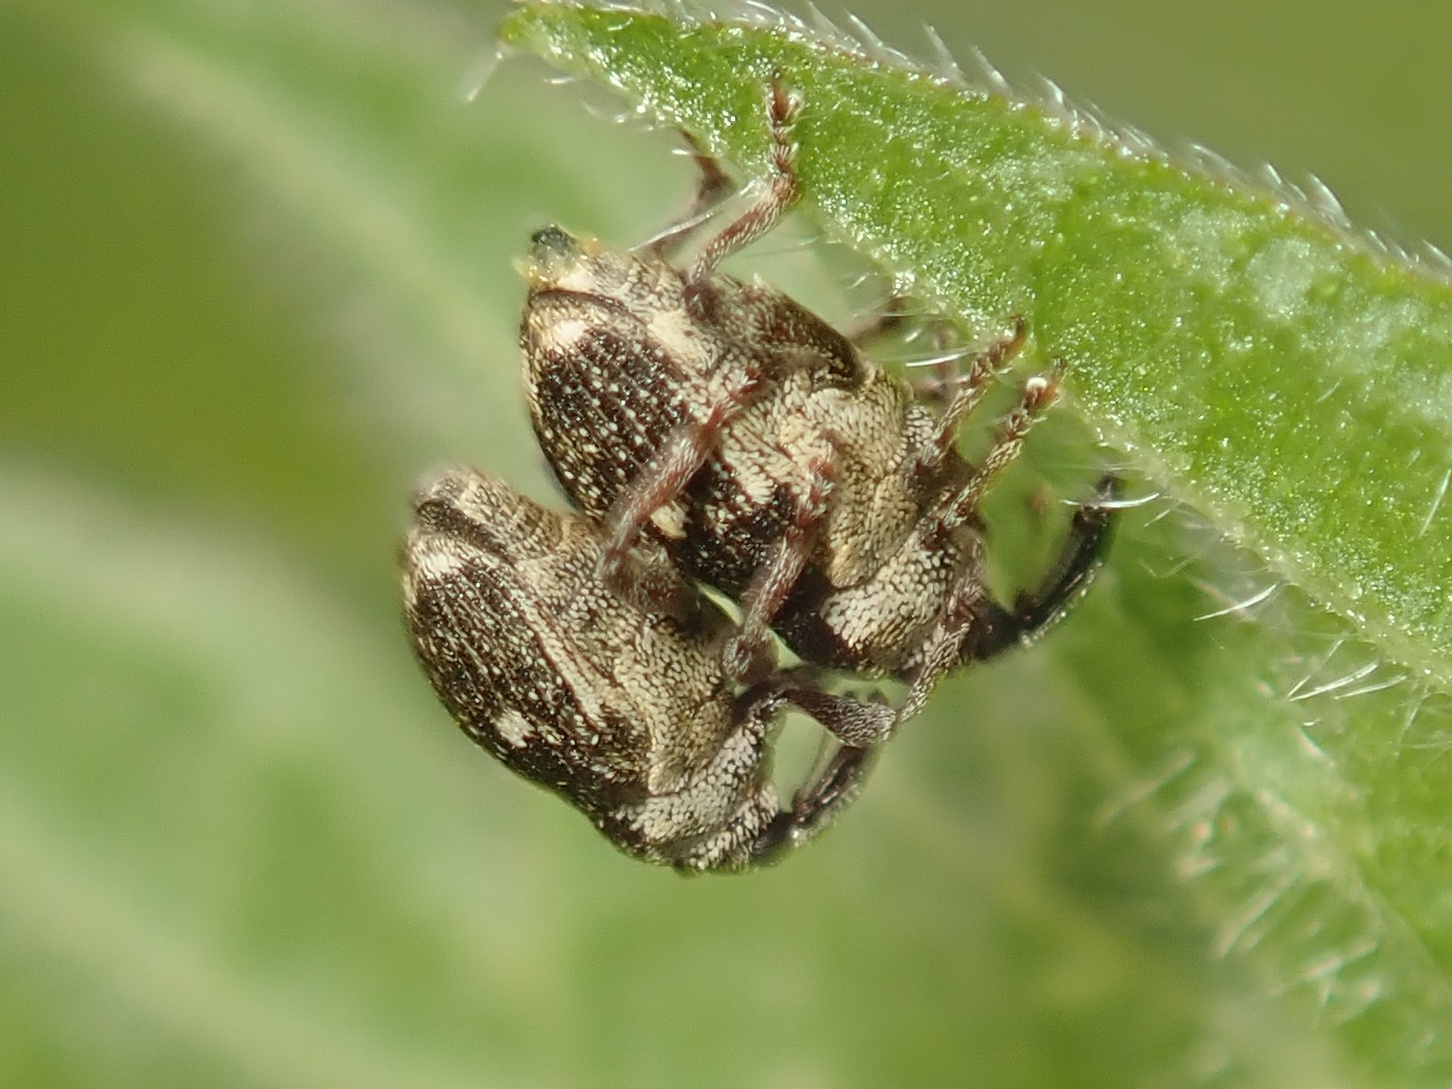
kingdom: Animalia
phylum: Arthropoda
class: Insecta
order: Coleoptera
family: Curculionidae
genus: Nedyus
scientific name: Nedyus quadrimaculatus
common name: Small nettle weevil
